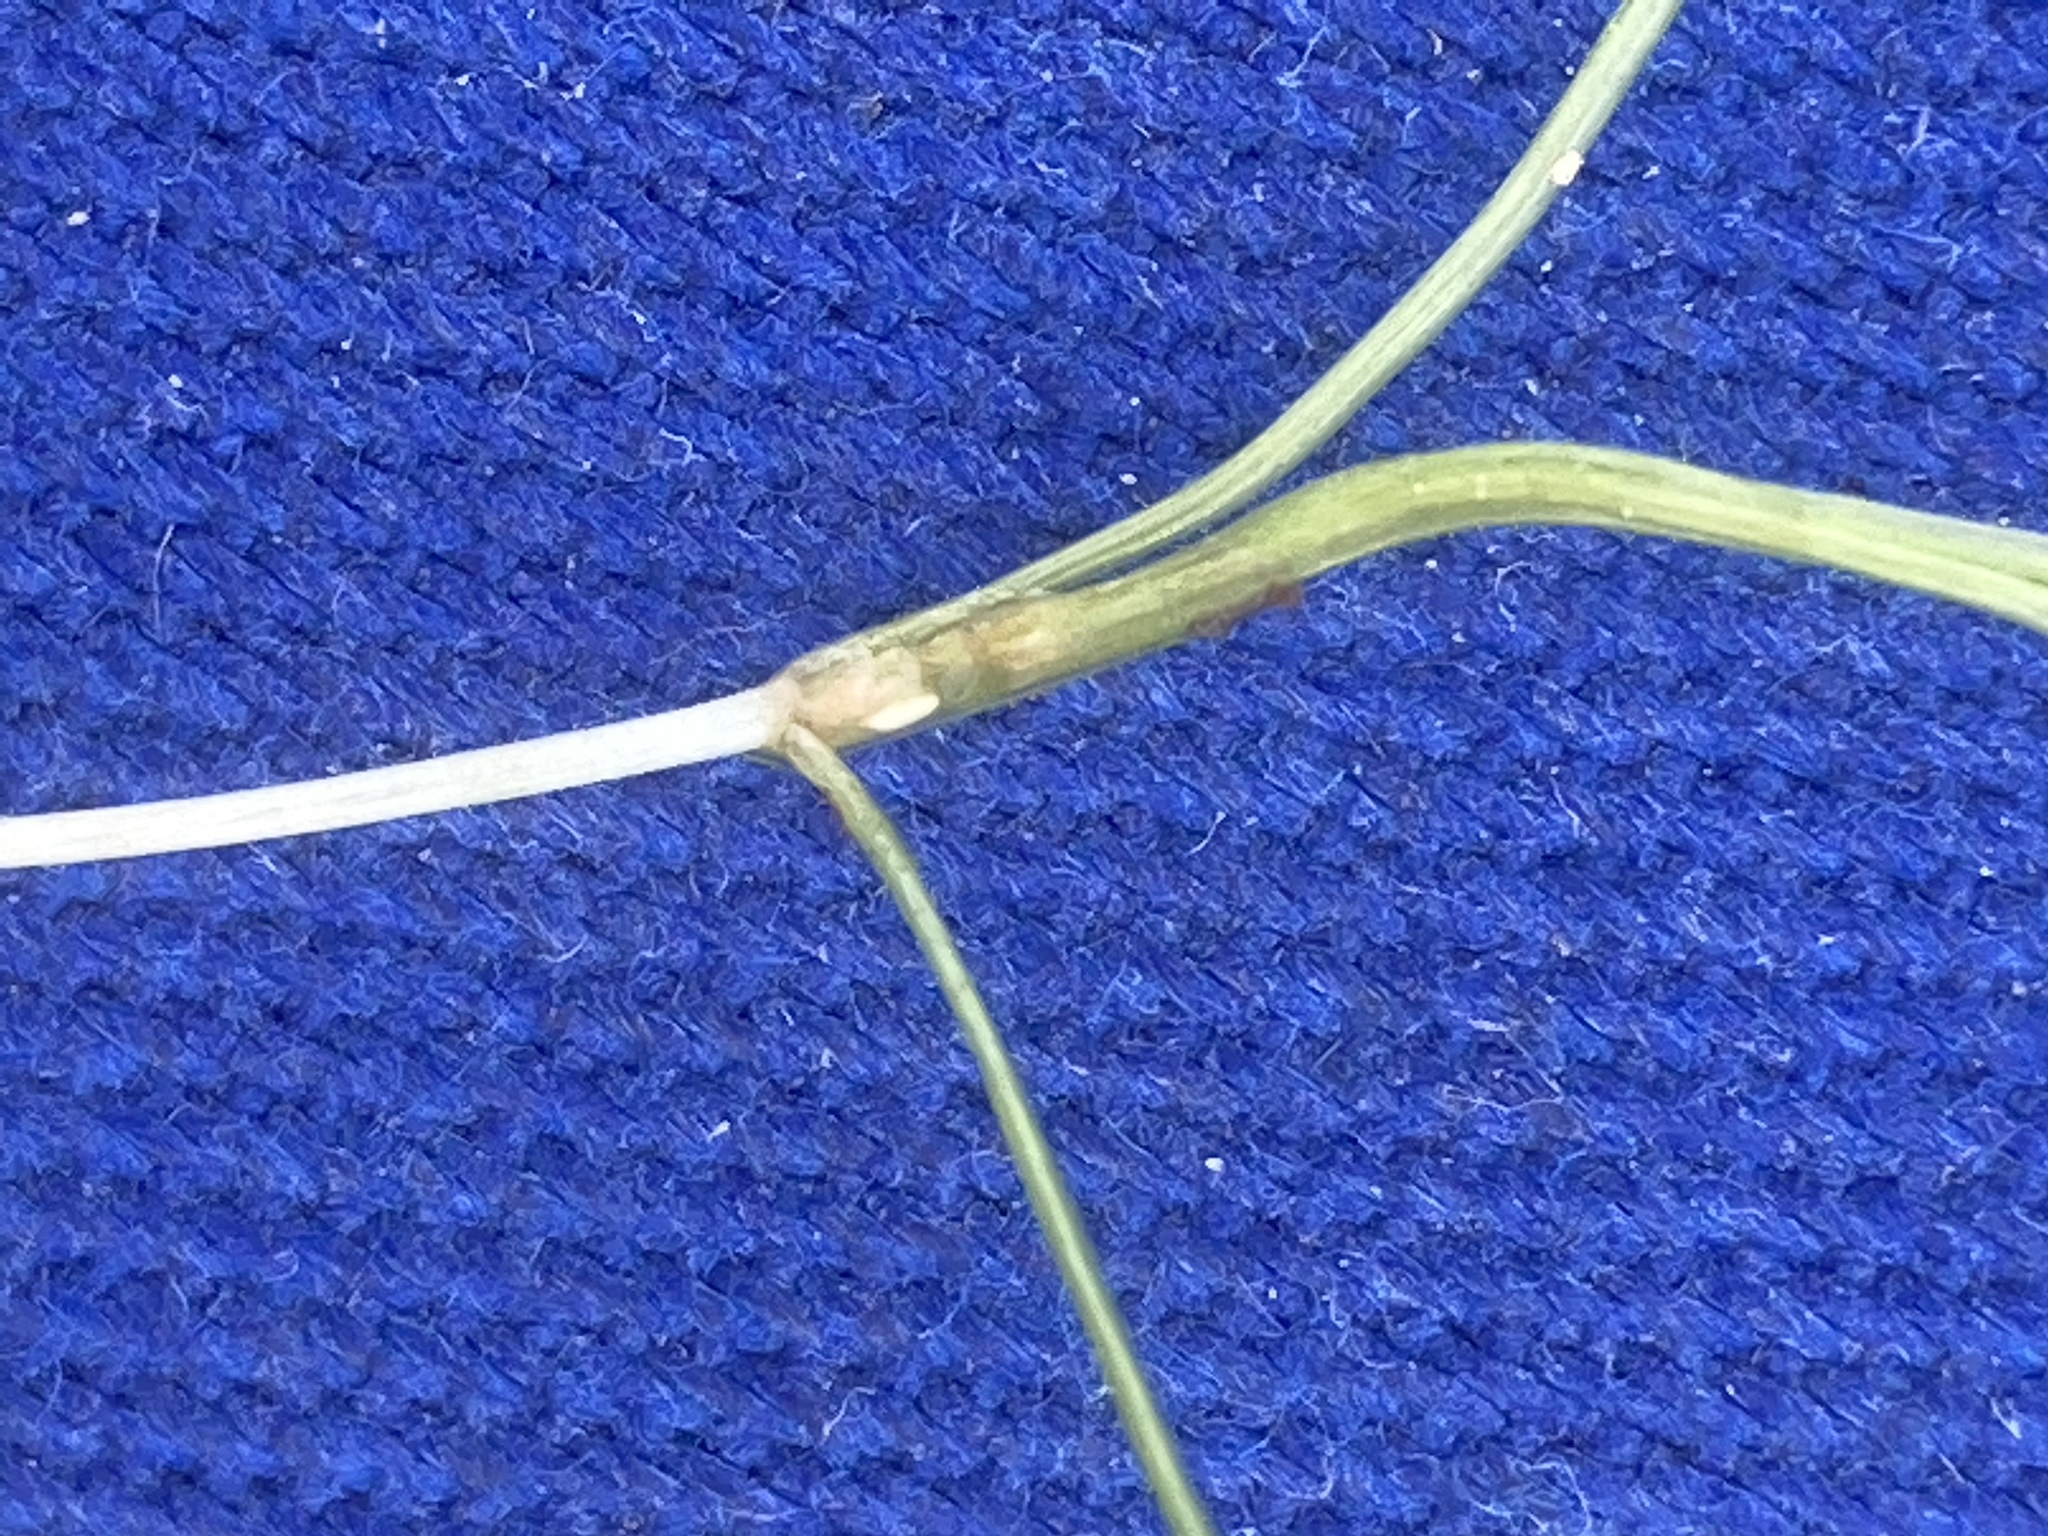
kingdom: Plantae
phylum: Tracheophyta
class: Liliopsida
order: Alismatales
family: Potamogetonaceae
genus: Zannichellia
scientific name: Zannichellia palustris
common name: Horned pondweed
